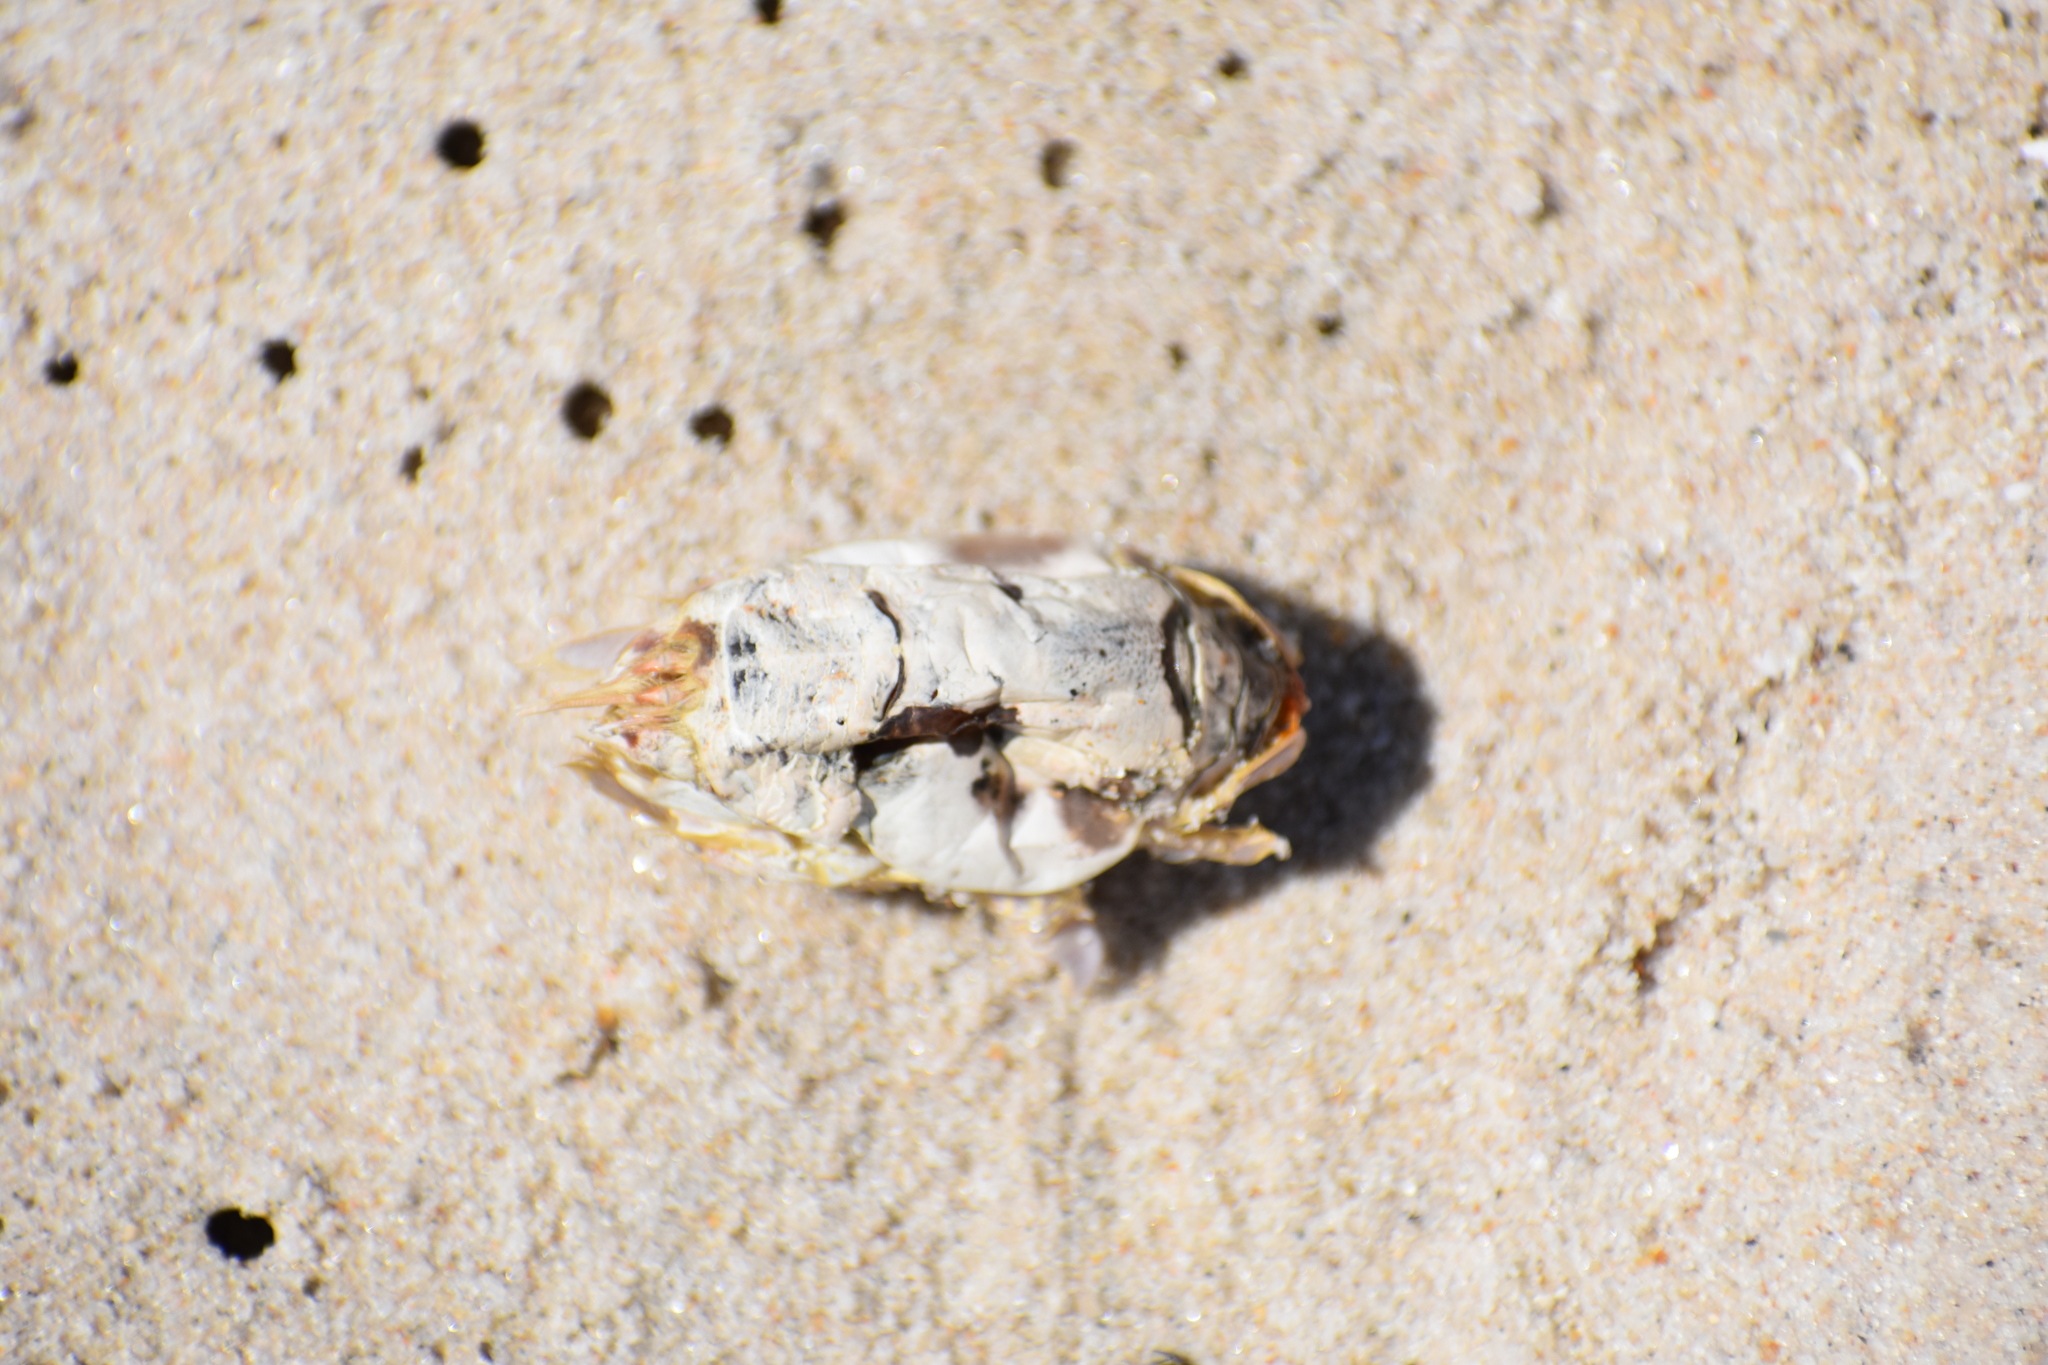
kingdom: Animalia
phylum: Arthropoda
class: Malacostraca
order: Decapoda
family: Hippidae
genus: Emerita
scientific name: Emerita talpoida
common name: Atlantic sand crab
